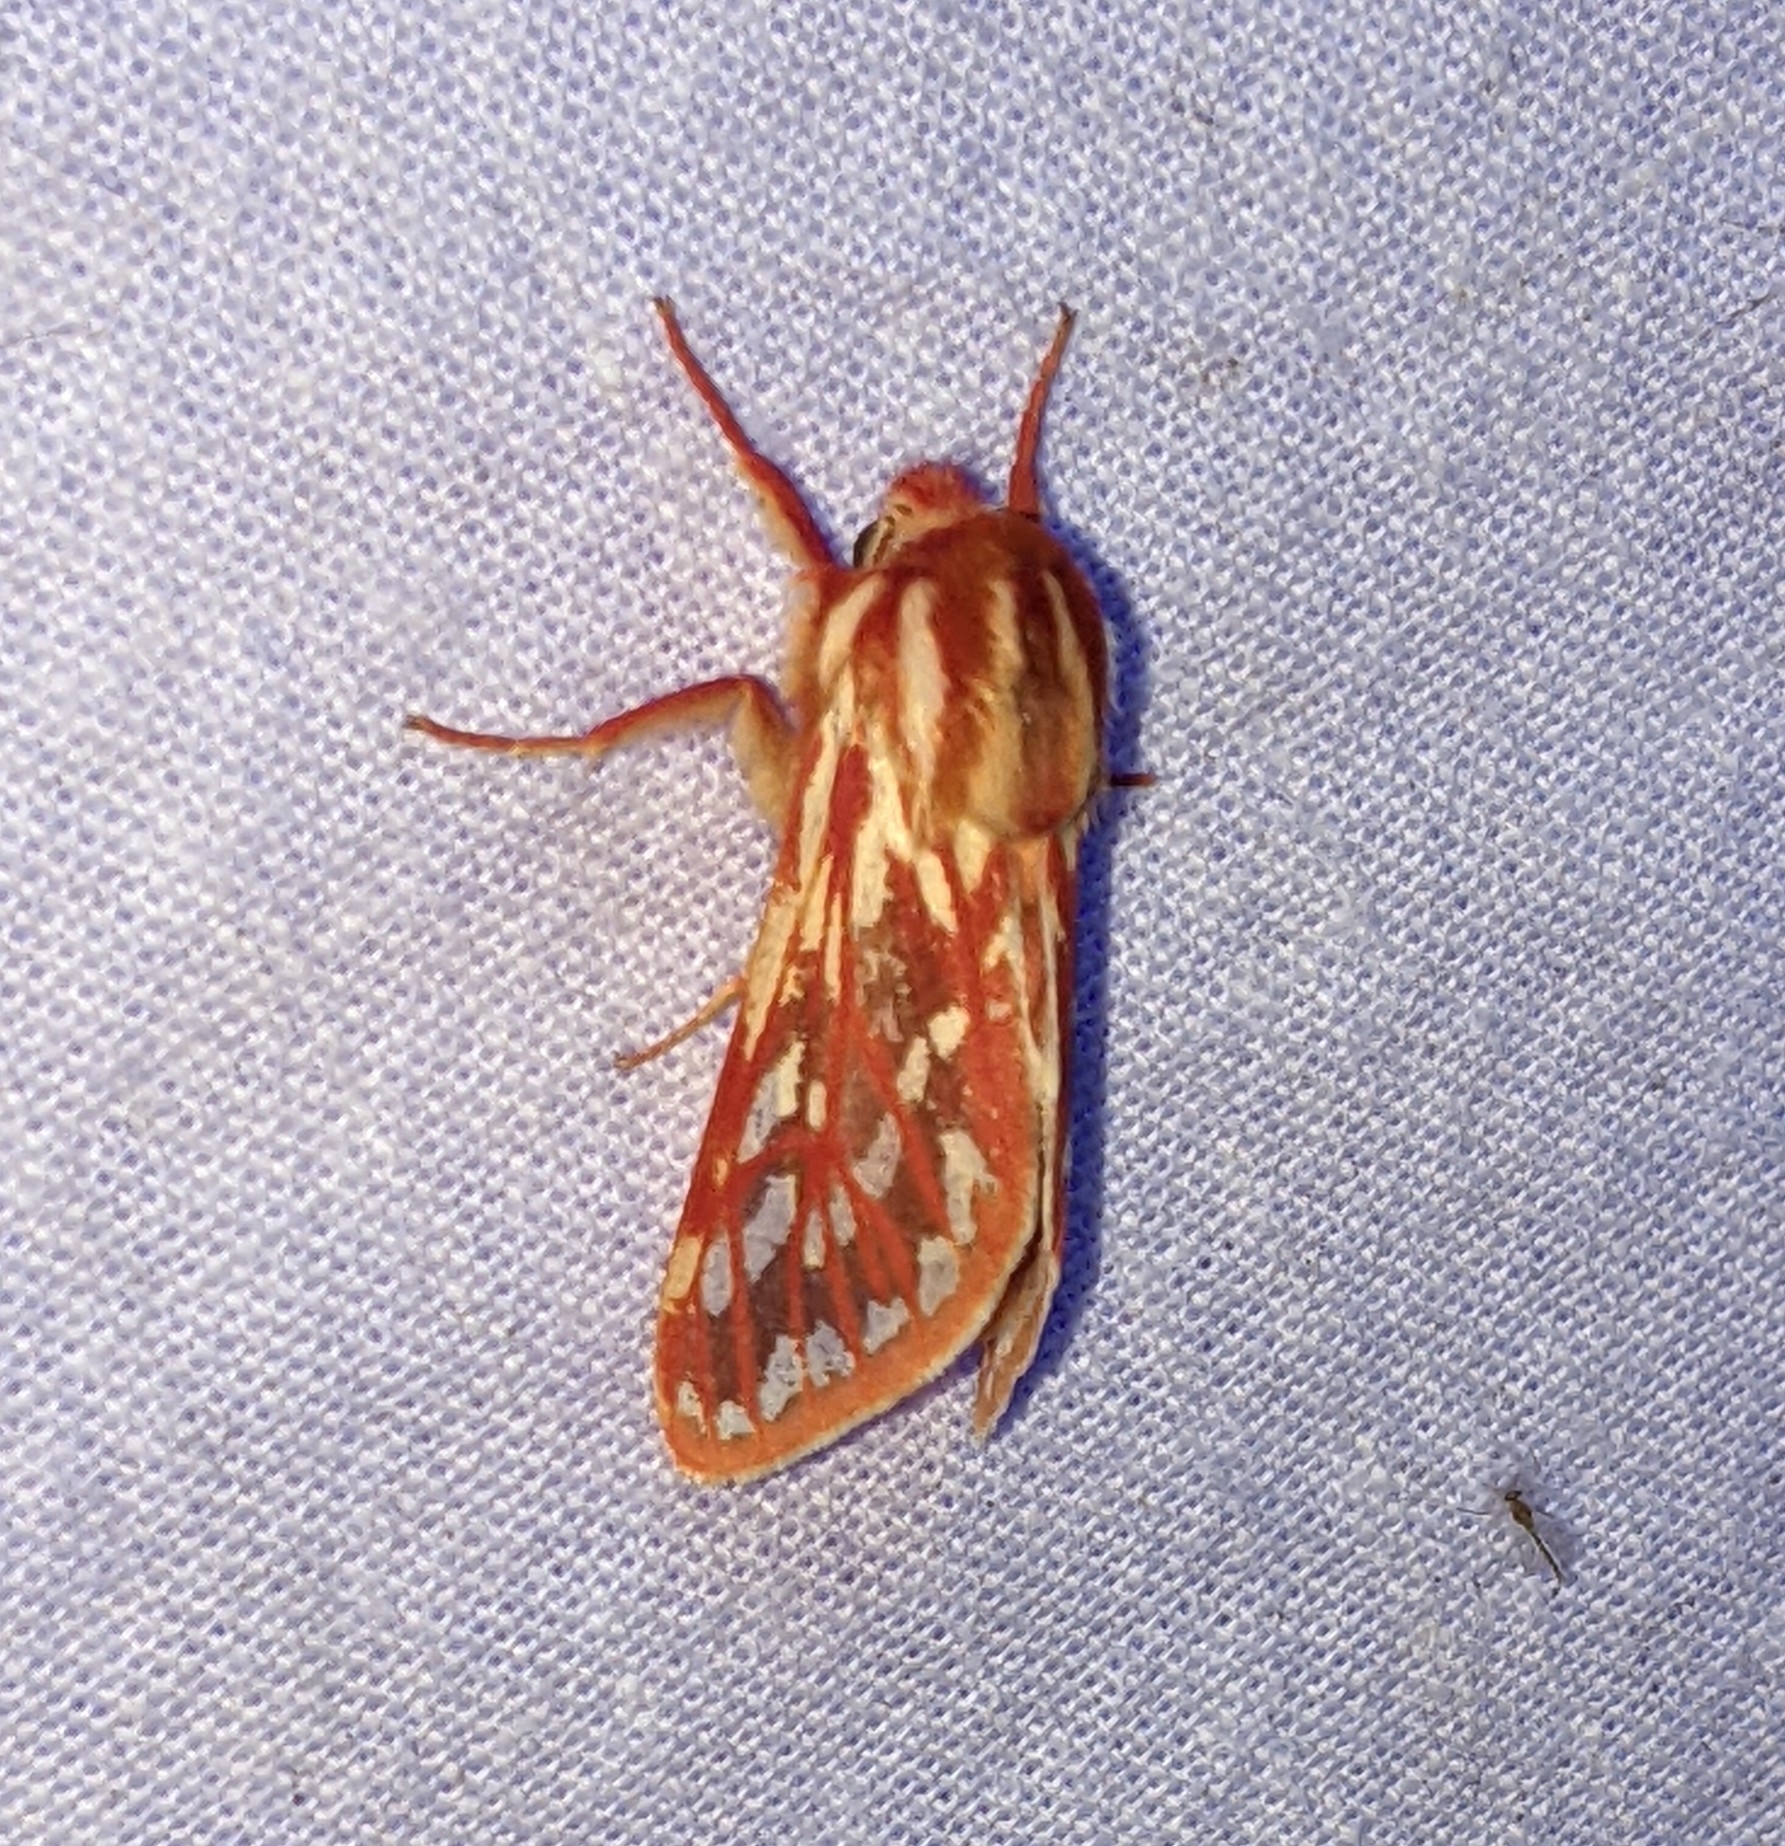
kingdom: Animalia
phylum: Arthropoda
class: Insecta
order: Lepidoptera
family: Erebidae
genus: Lophocampa
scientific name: Lophocampa roseata
